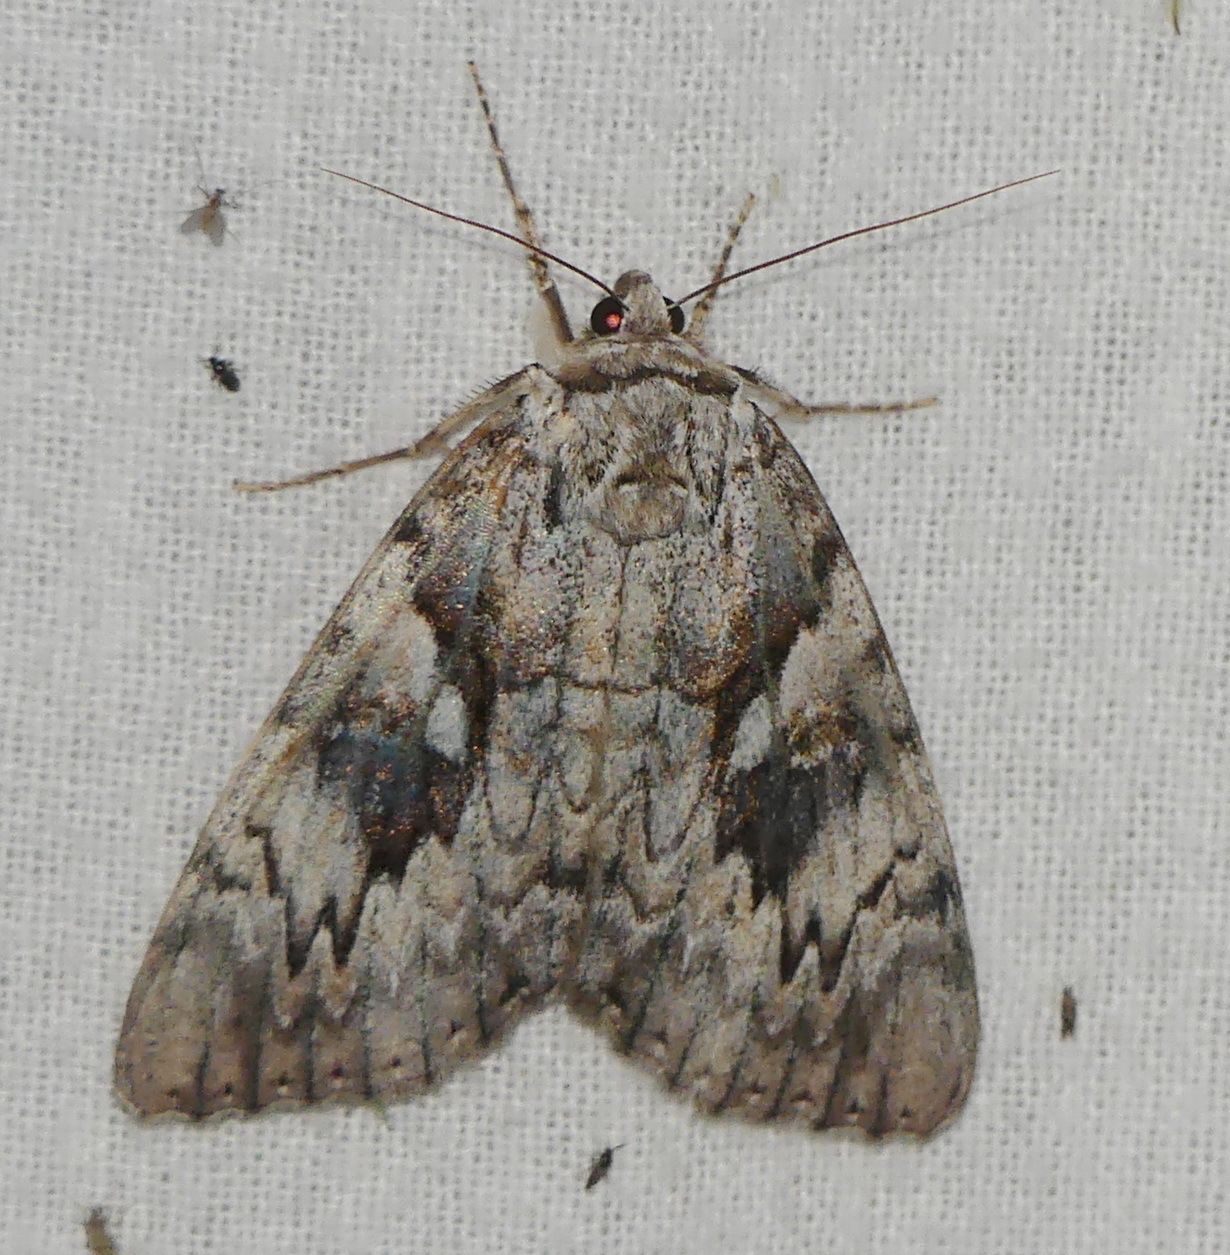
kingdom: Animalia
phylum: Arthropoda
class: Insecta
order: Lepidoptera
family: Erebidae
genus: Catocala
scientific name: Catocala cerogama
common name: Yellow banded underwing
